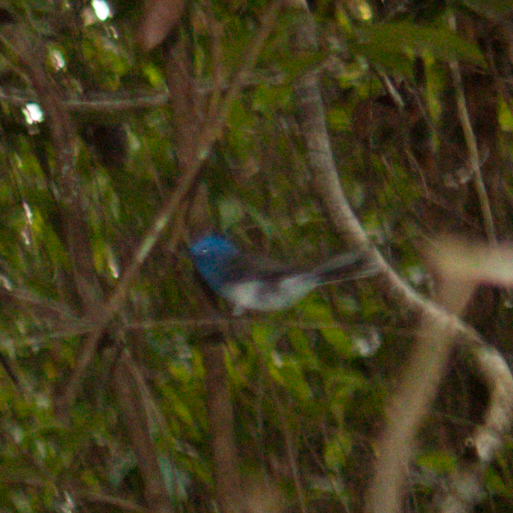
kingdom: Animalia
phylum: Chordata
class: Aves
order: Passeriformes
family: Monarchidae
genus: Hypothymis
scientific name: Hypothymis azurea
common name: Black-naped monarch
